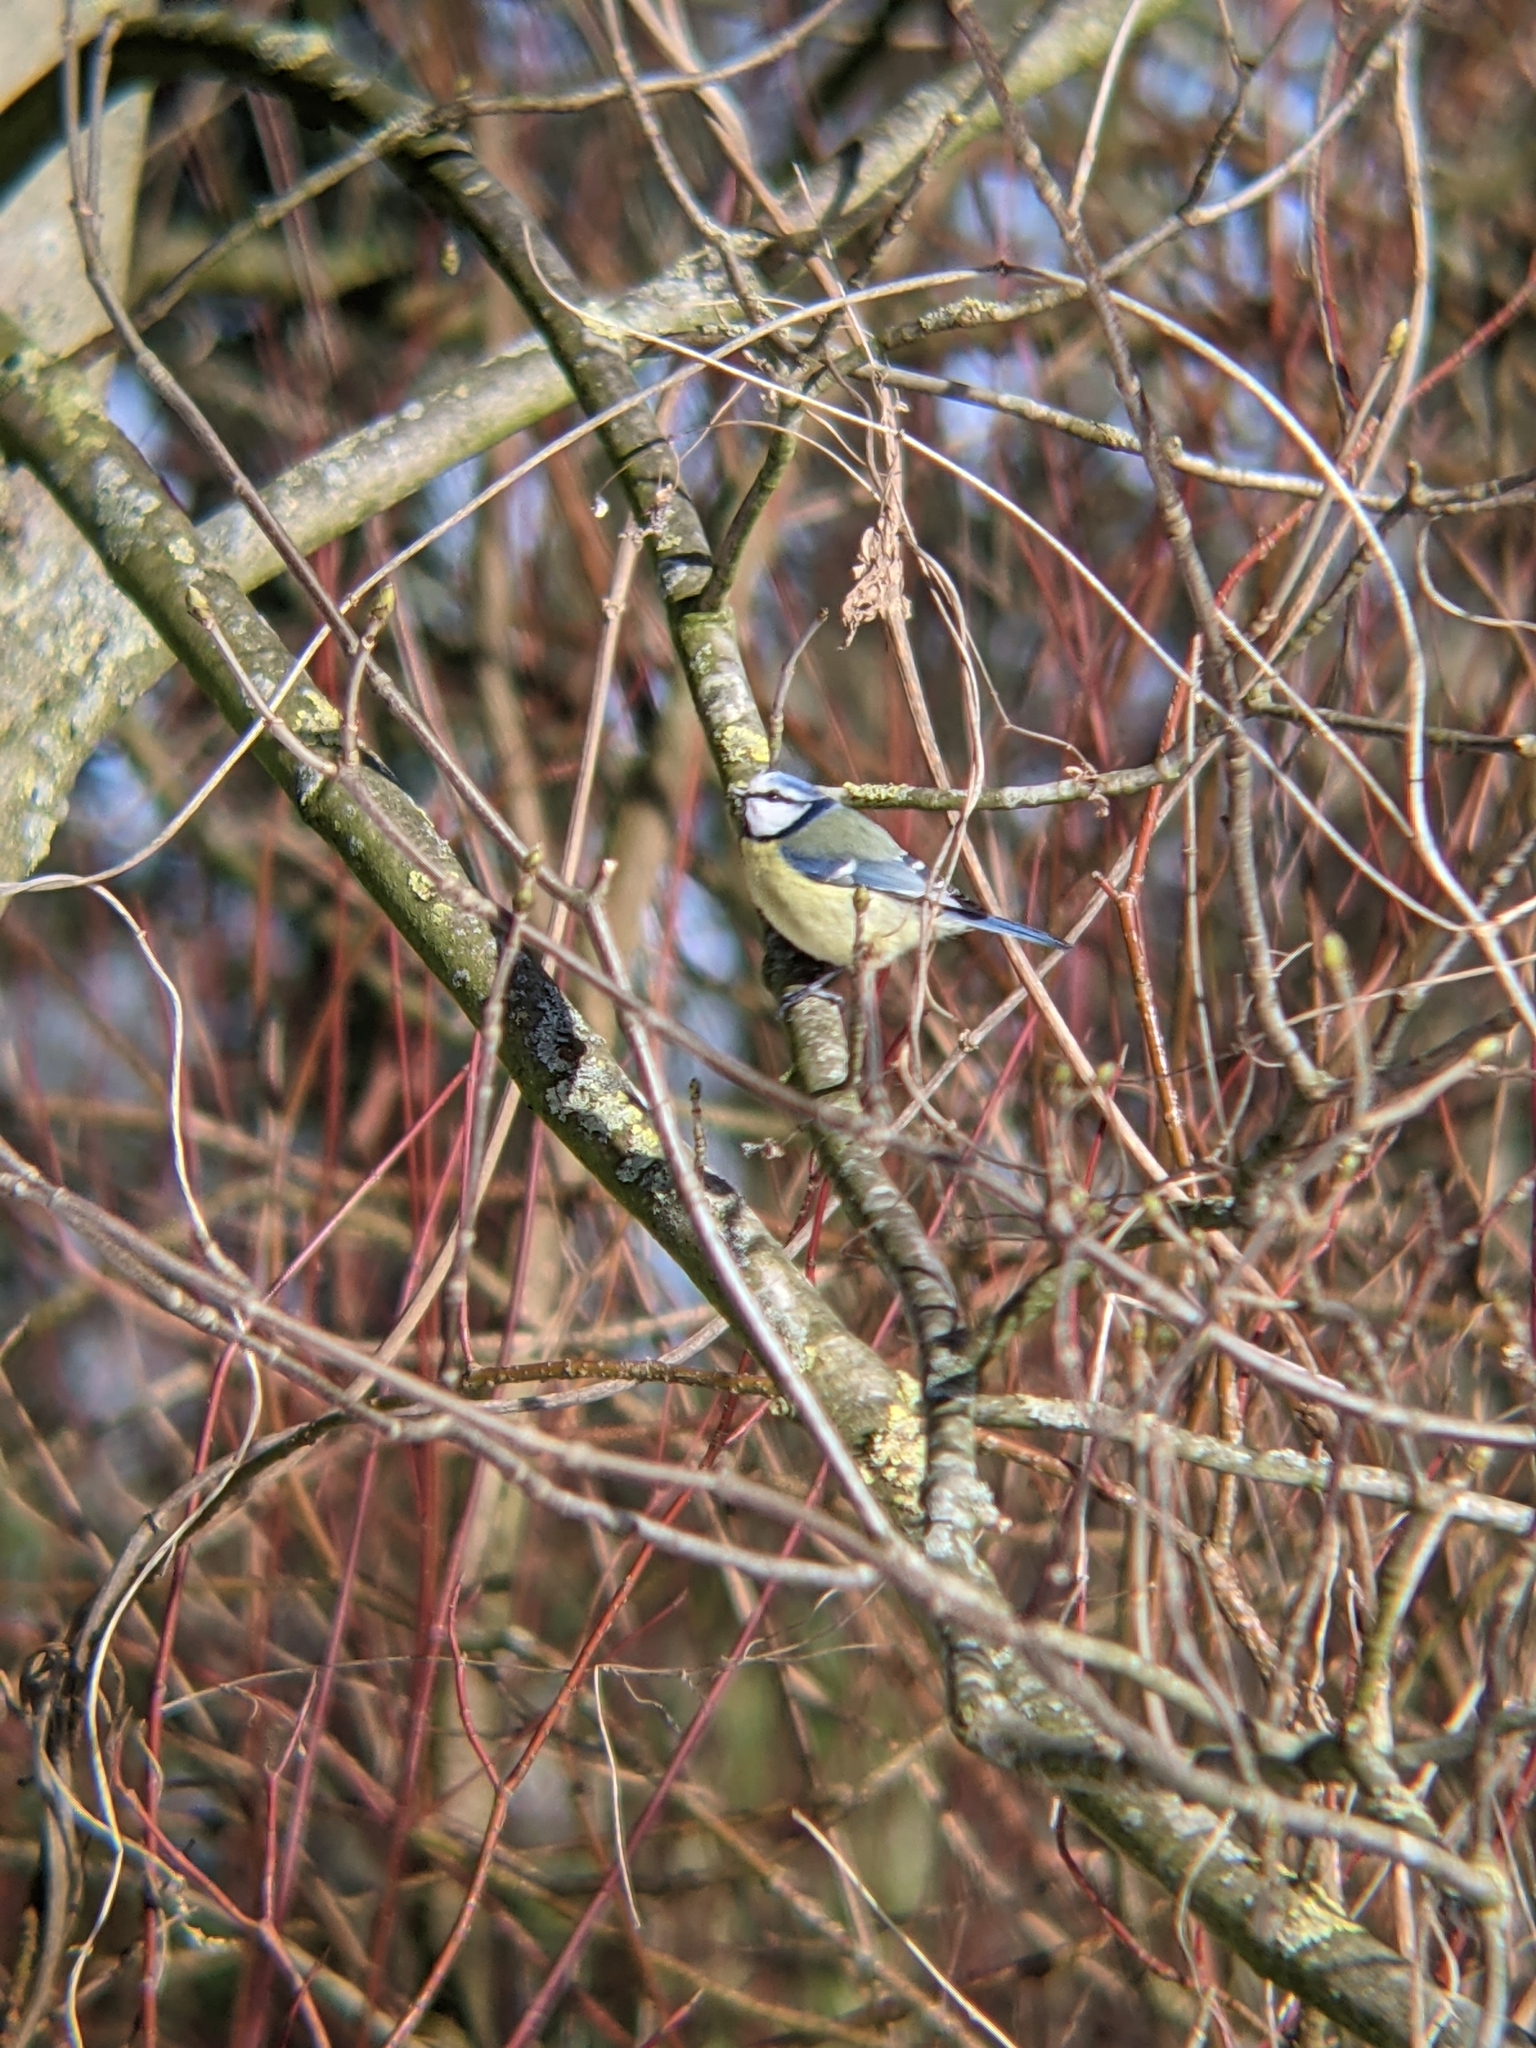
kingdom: Animalia
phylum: Chordata
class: Aves
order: Passeriformes
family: Paridae
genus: Cyanistes
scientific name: Cyanistes caeruleus
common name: Eurasian blue tit
